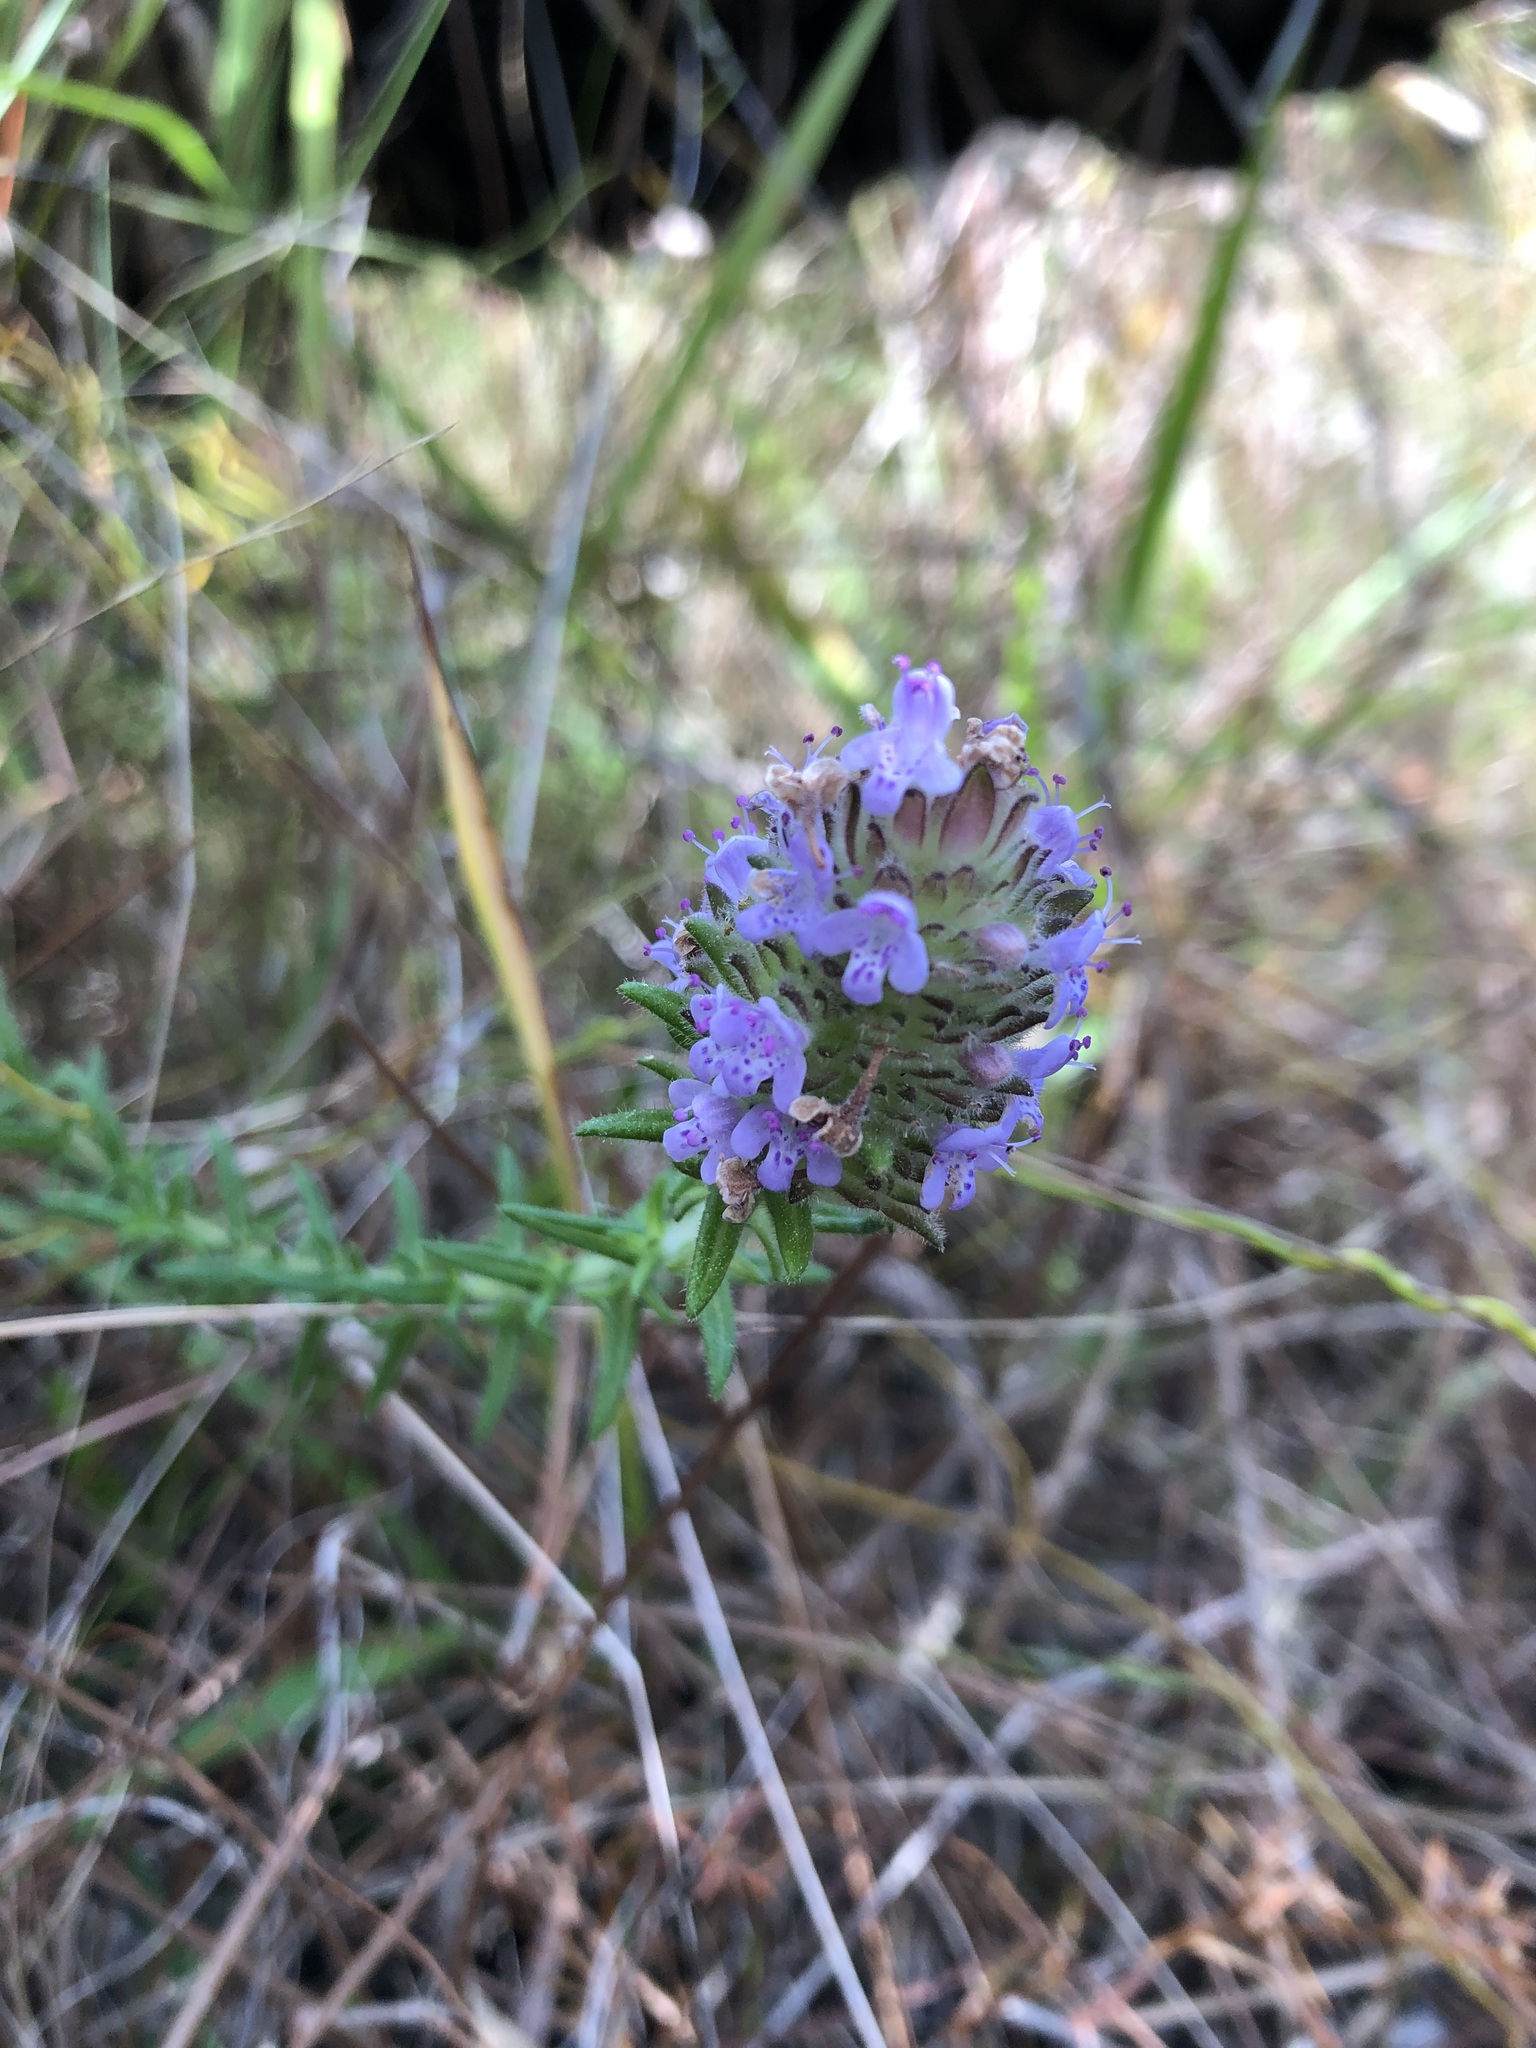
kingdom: Plantae
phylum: Tracheophyta
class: Magnoliopsida
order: Lamiales
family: Lamiaceae
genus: Piloblephis
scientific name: Piloblephis rigida
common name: Wild pennyroyal
